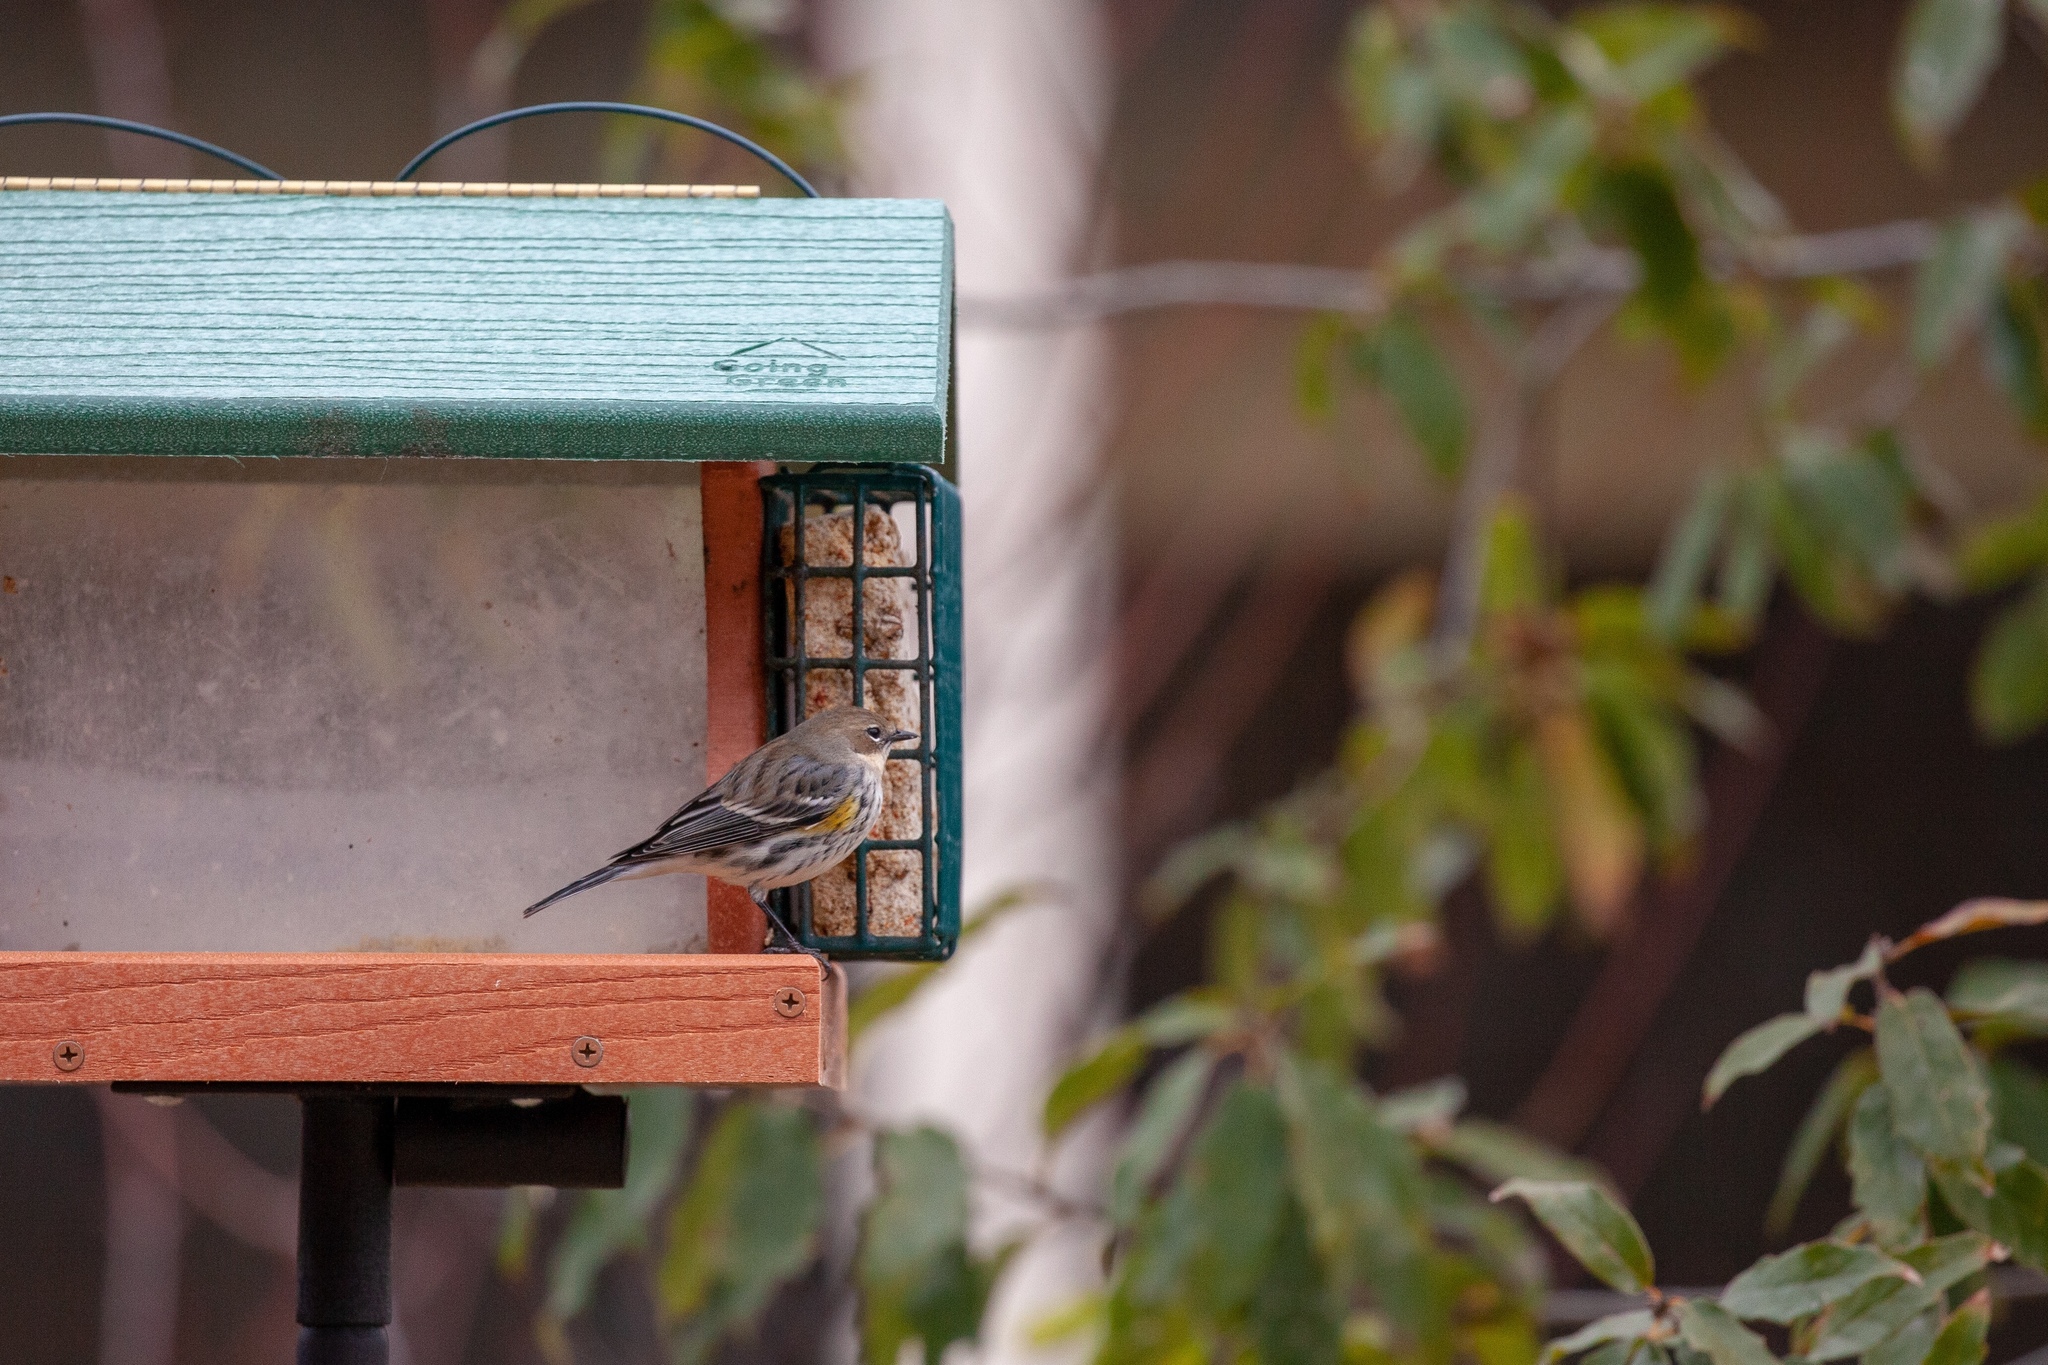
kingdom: Animalia
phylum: Chordata
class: Aves
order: Passeriformes
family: Parulidae
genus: Setophaga
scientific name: Setophaga coronata
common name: Myrtle warbler
